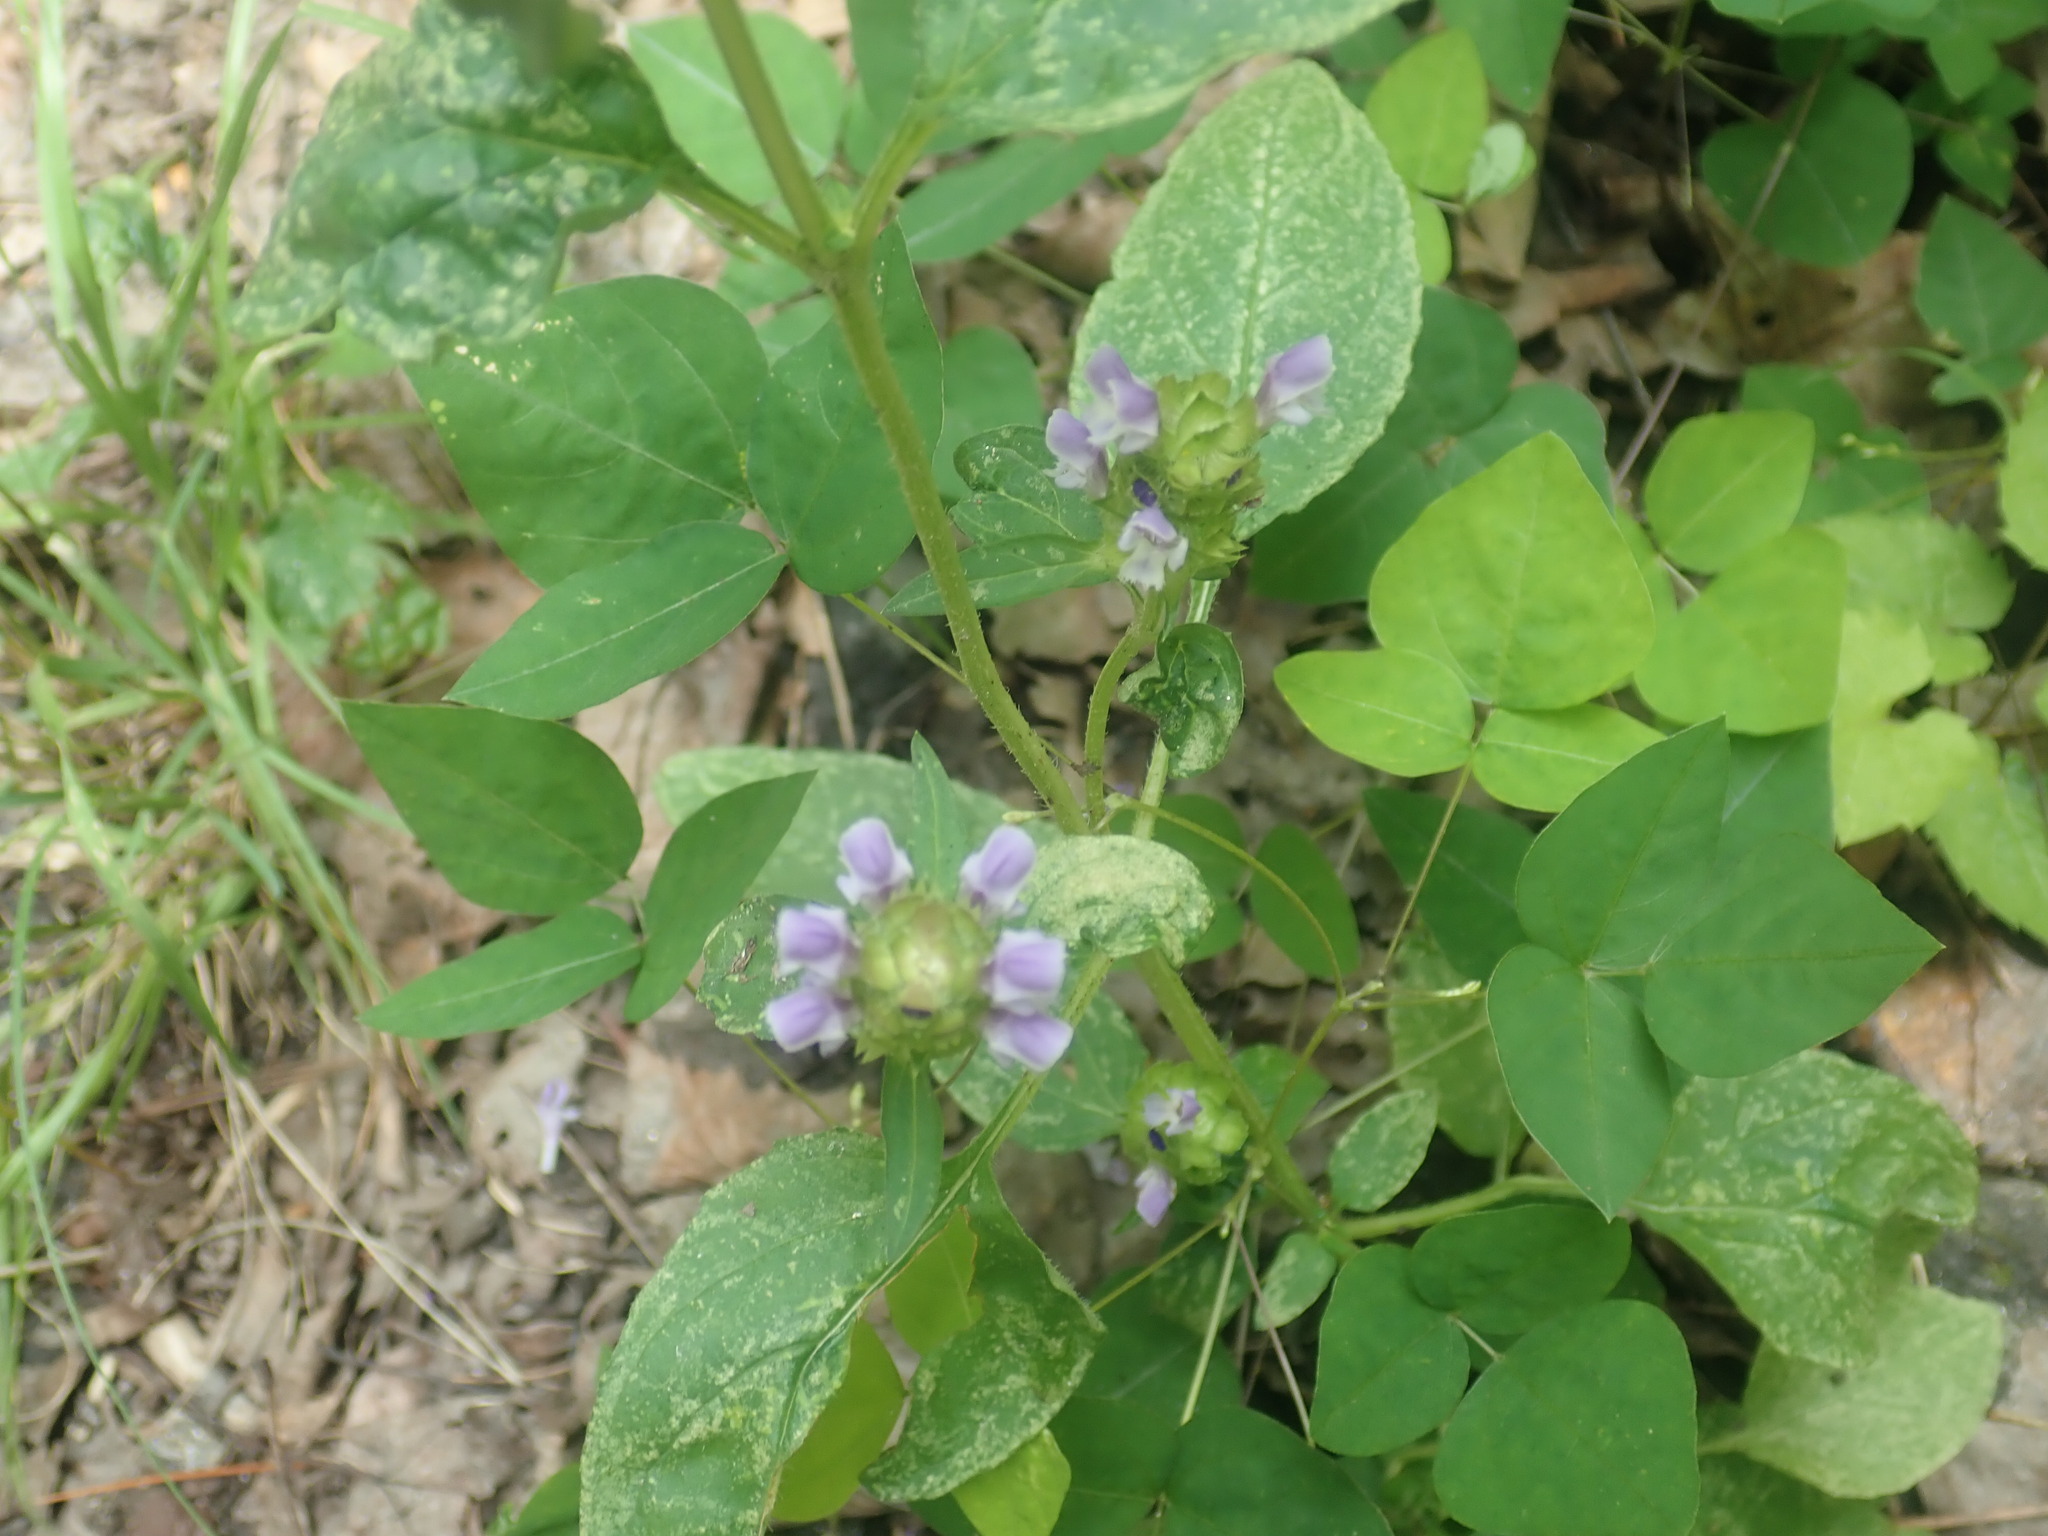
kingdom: Plantae
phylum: Tracheophyta
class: Magnoliopsida
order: Lamiales
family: Lamiaceae
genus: Prunella
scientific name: Prunella vulgaris
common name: Heal-all
